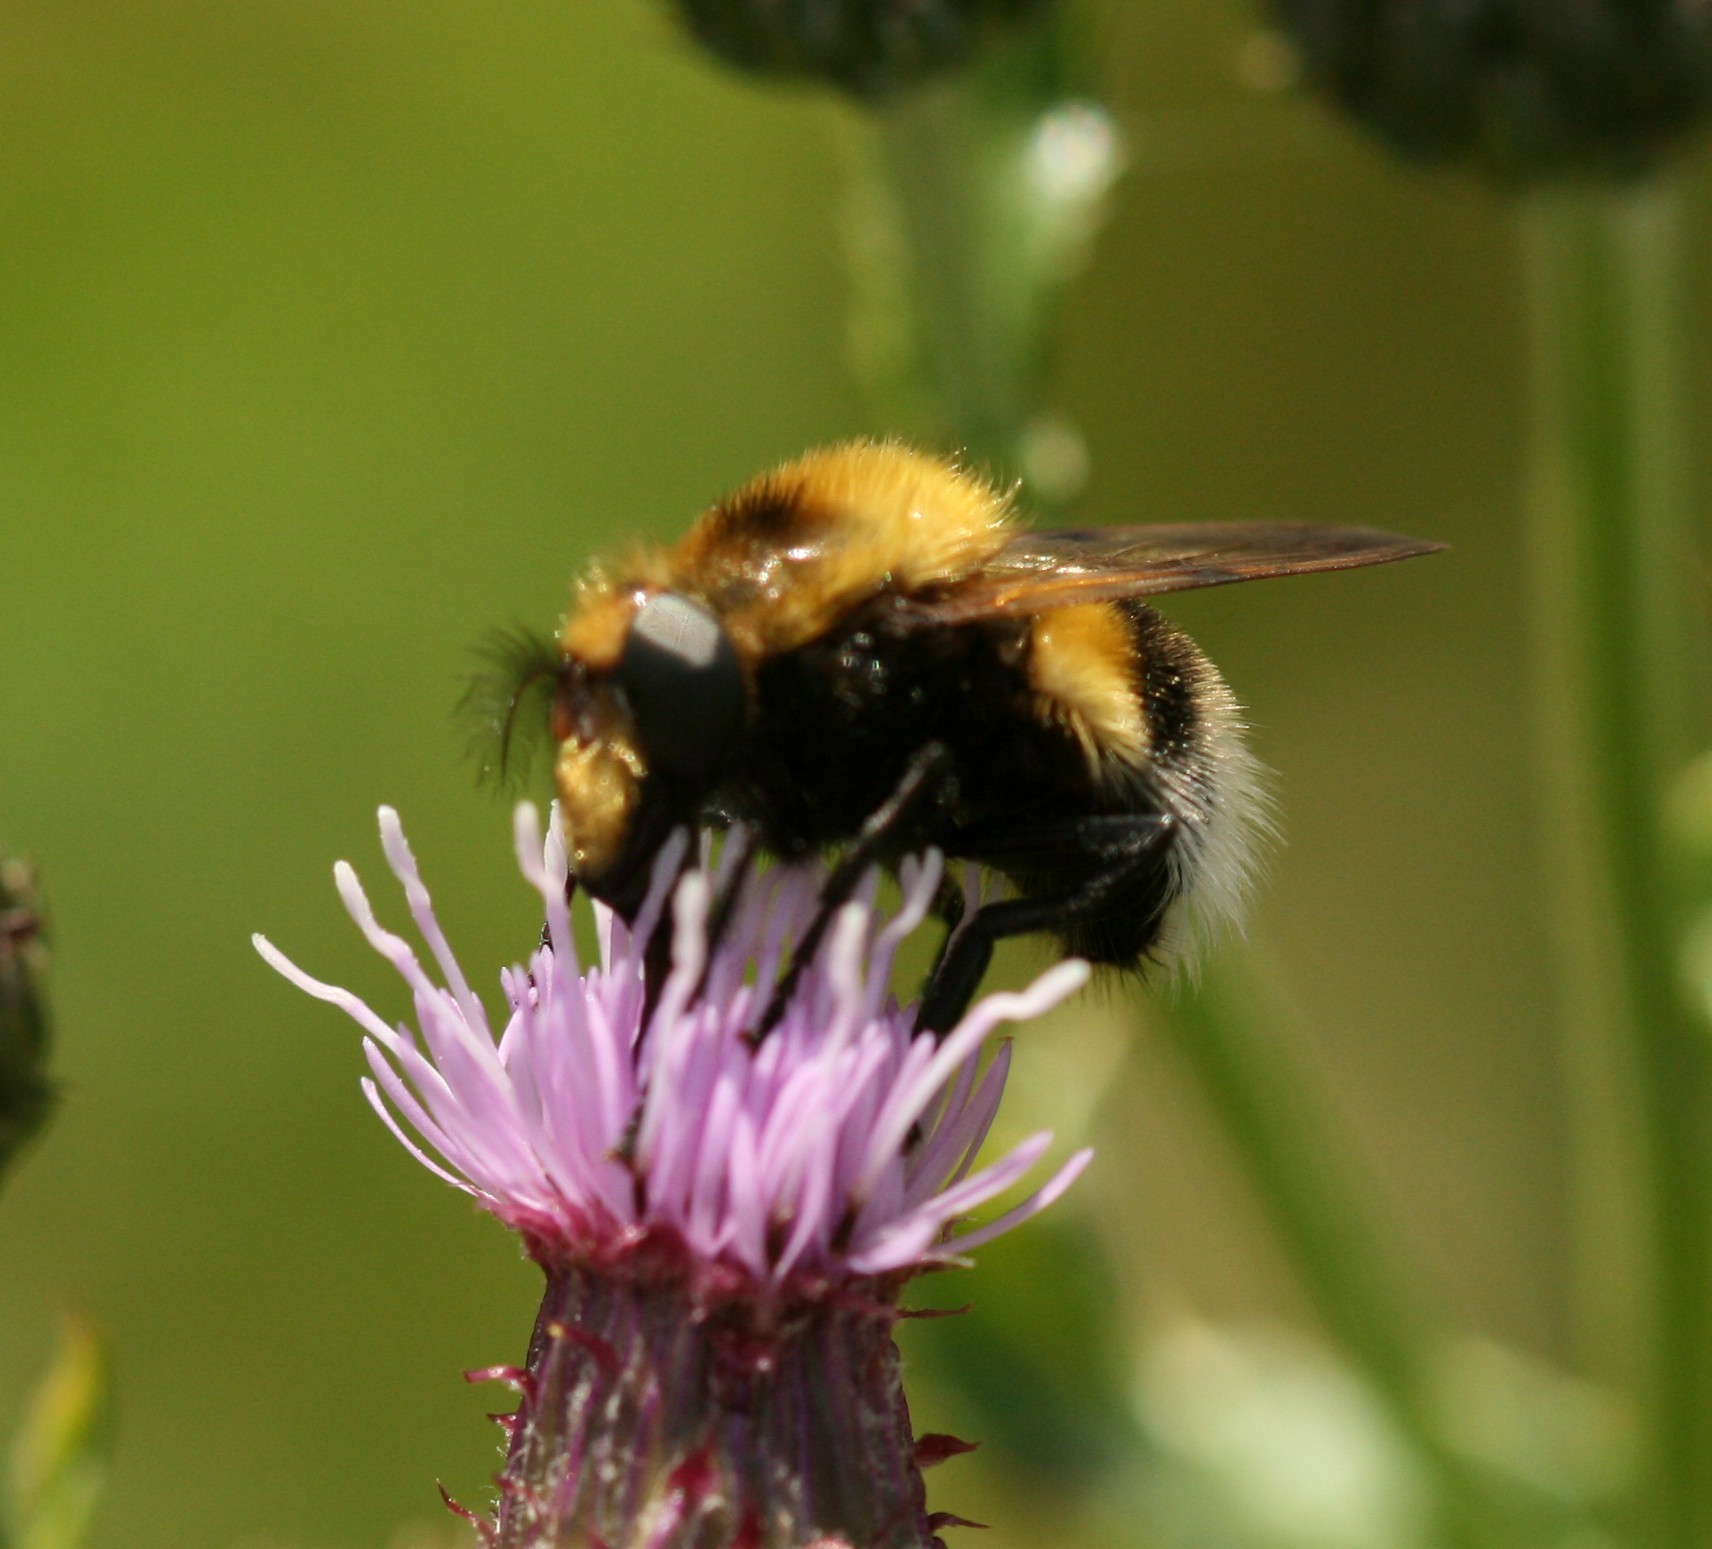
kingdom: Animalia
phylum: Arthropoda
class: Insecta
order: Diptera
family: Syrphidae
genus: Volucella
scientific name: Volucella bombylans
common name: Bumble bee hover fly
